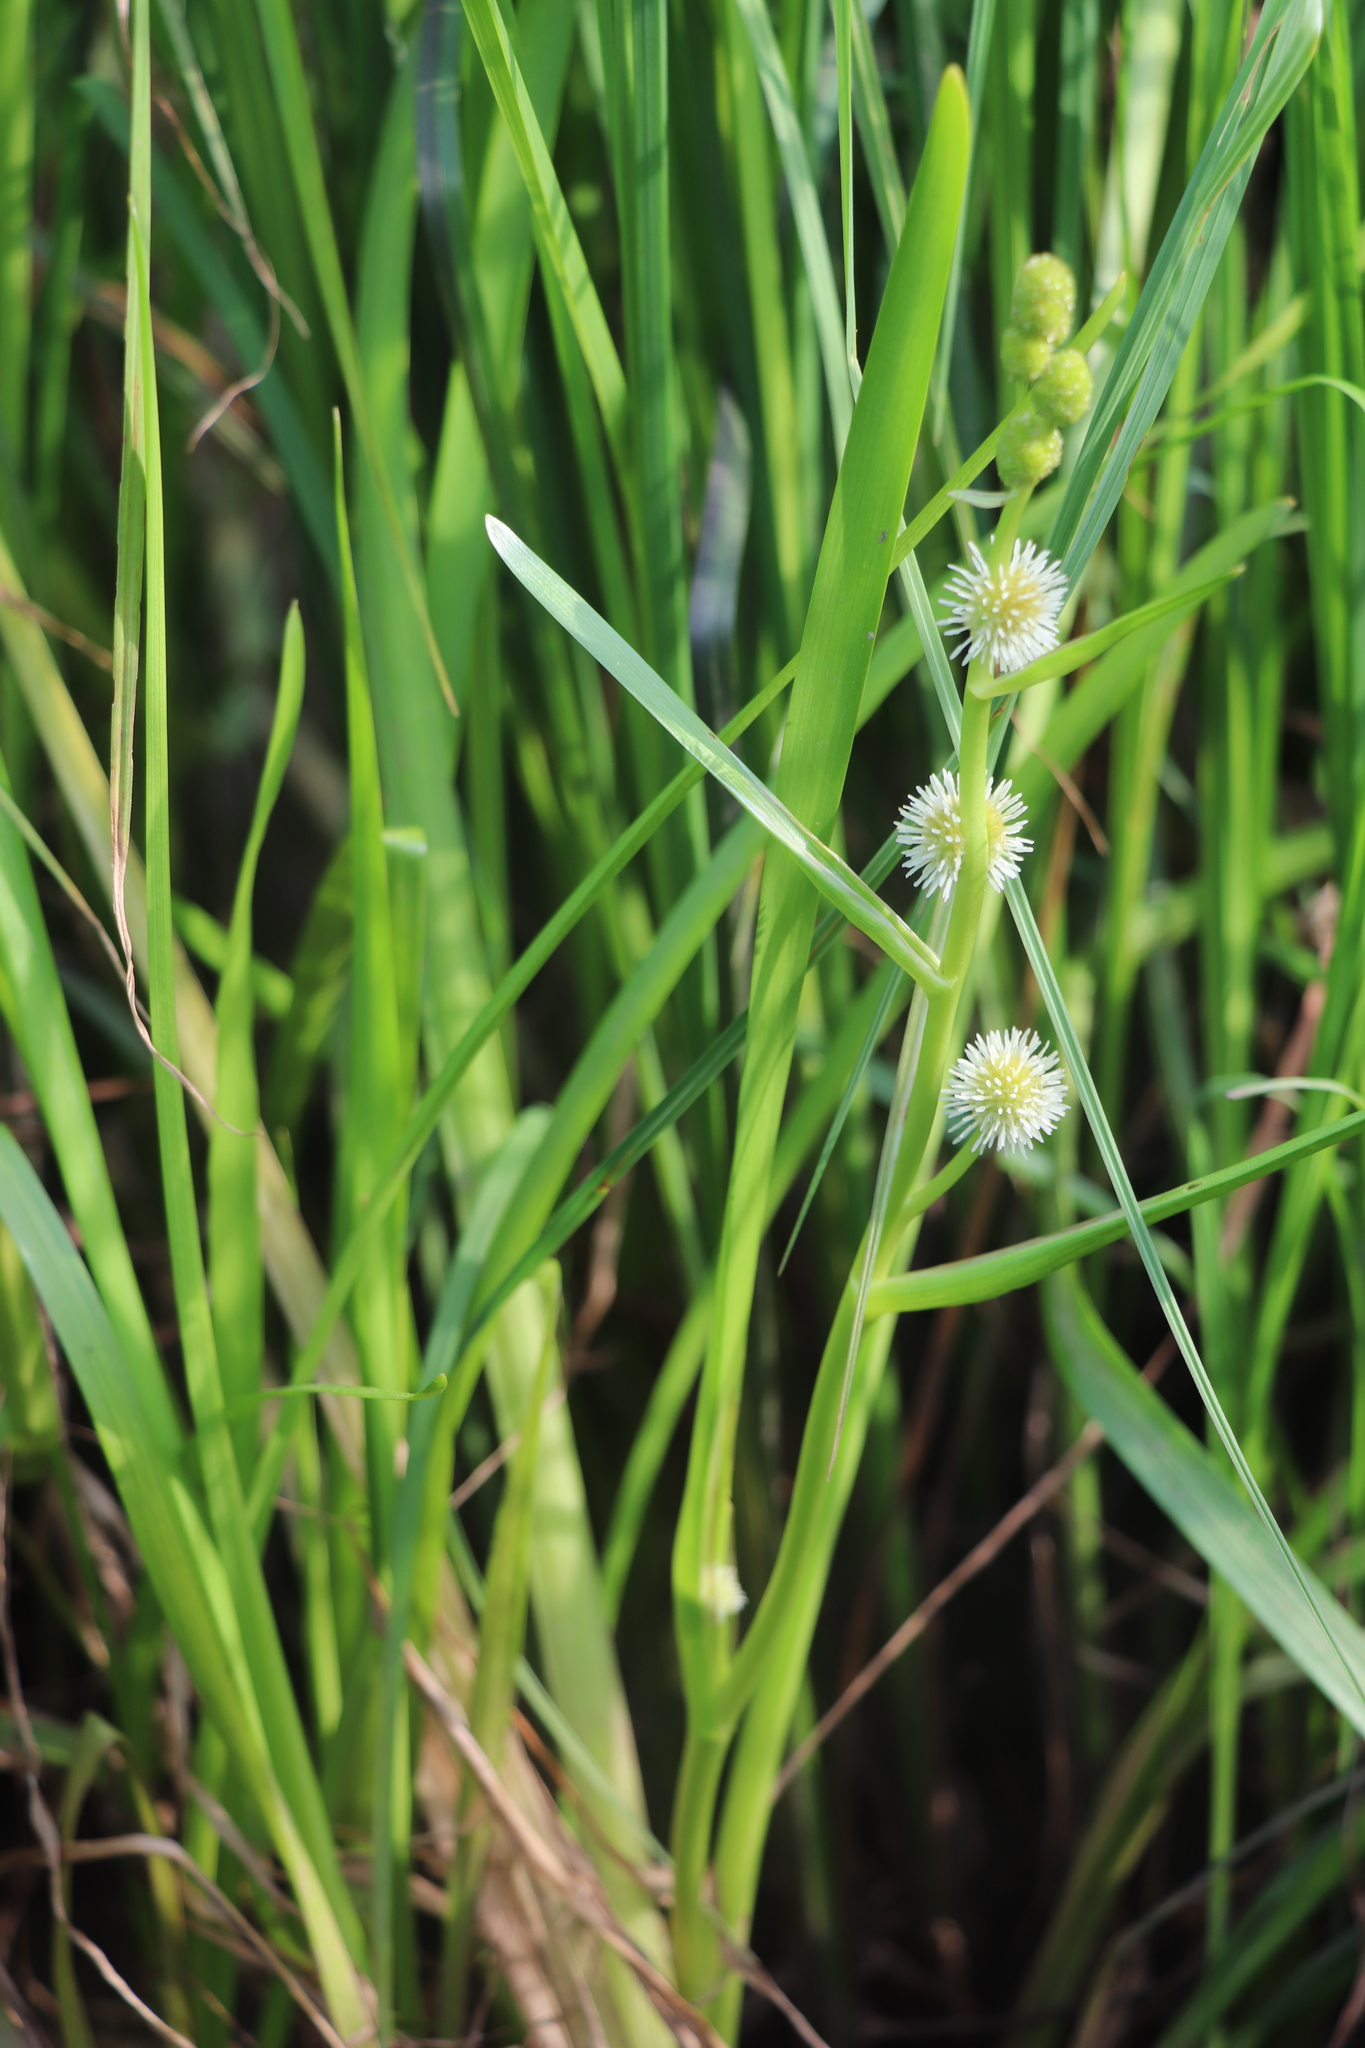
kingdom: Plantae
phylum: Tracheophyta
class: Liliopsida
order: Poales
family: Typhaceae
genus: Sparganium
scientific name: Sparganium erectum
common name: Branched bur-reed
